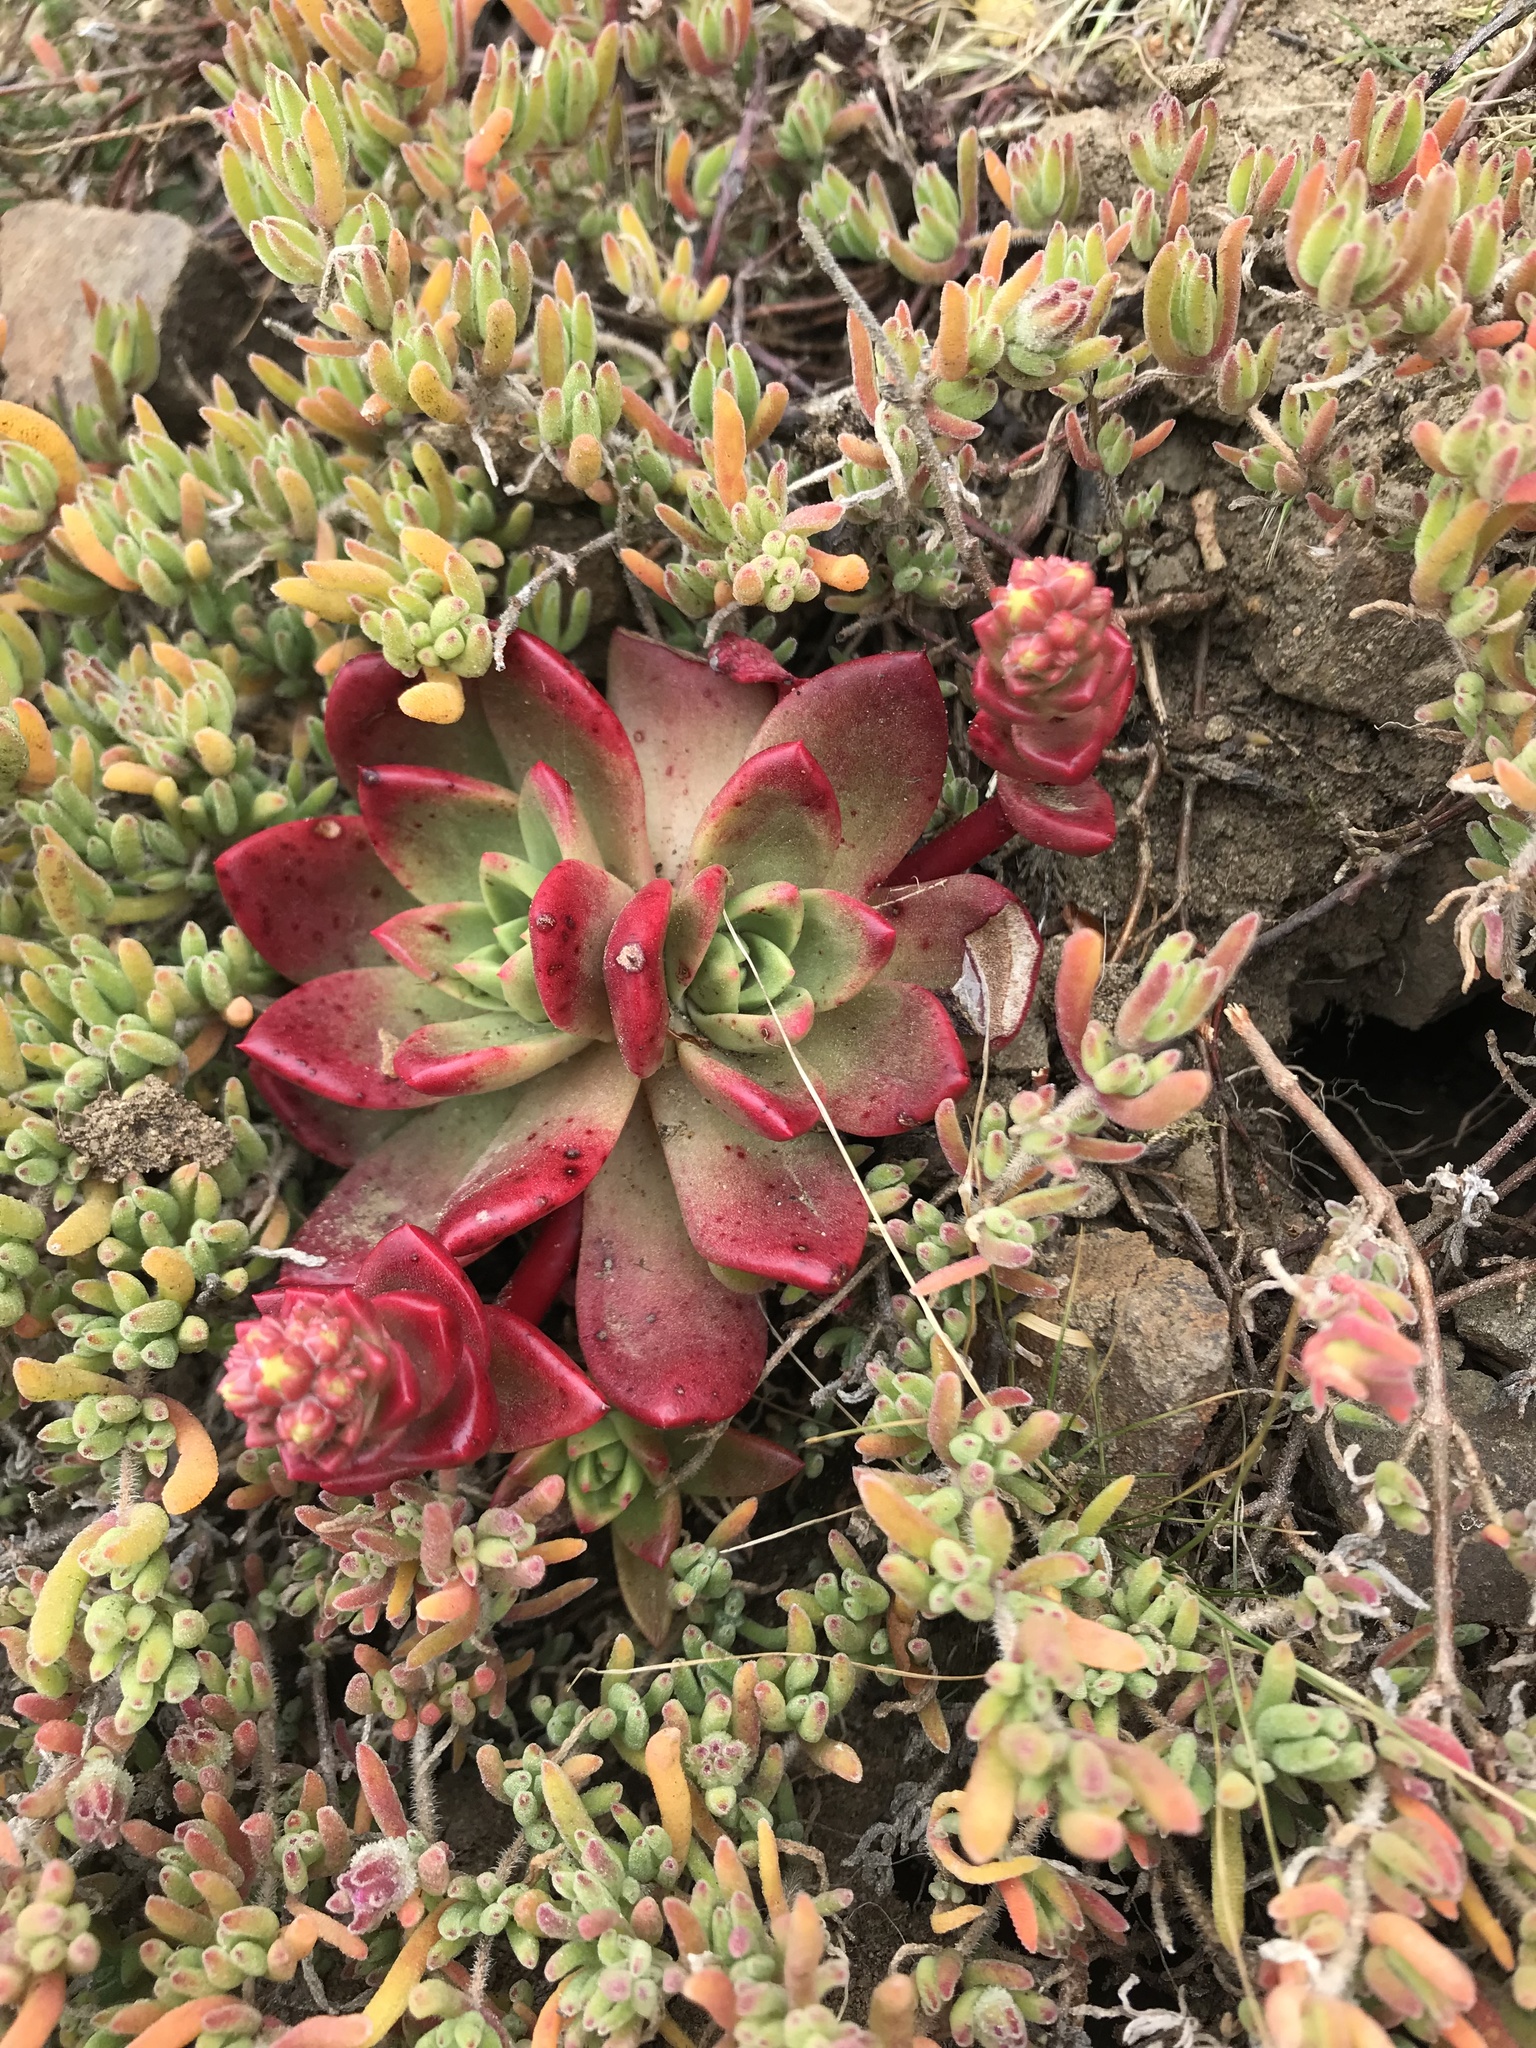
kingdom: Plantae
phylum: Tracheophyta
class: Magnoliopsida
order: Saxifragales
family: Crassulaceae
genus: Dudleya
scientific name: Dudleya farinosa
